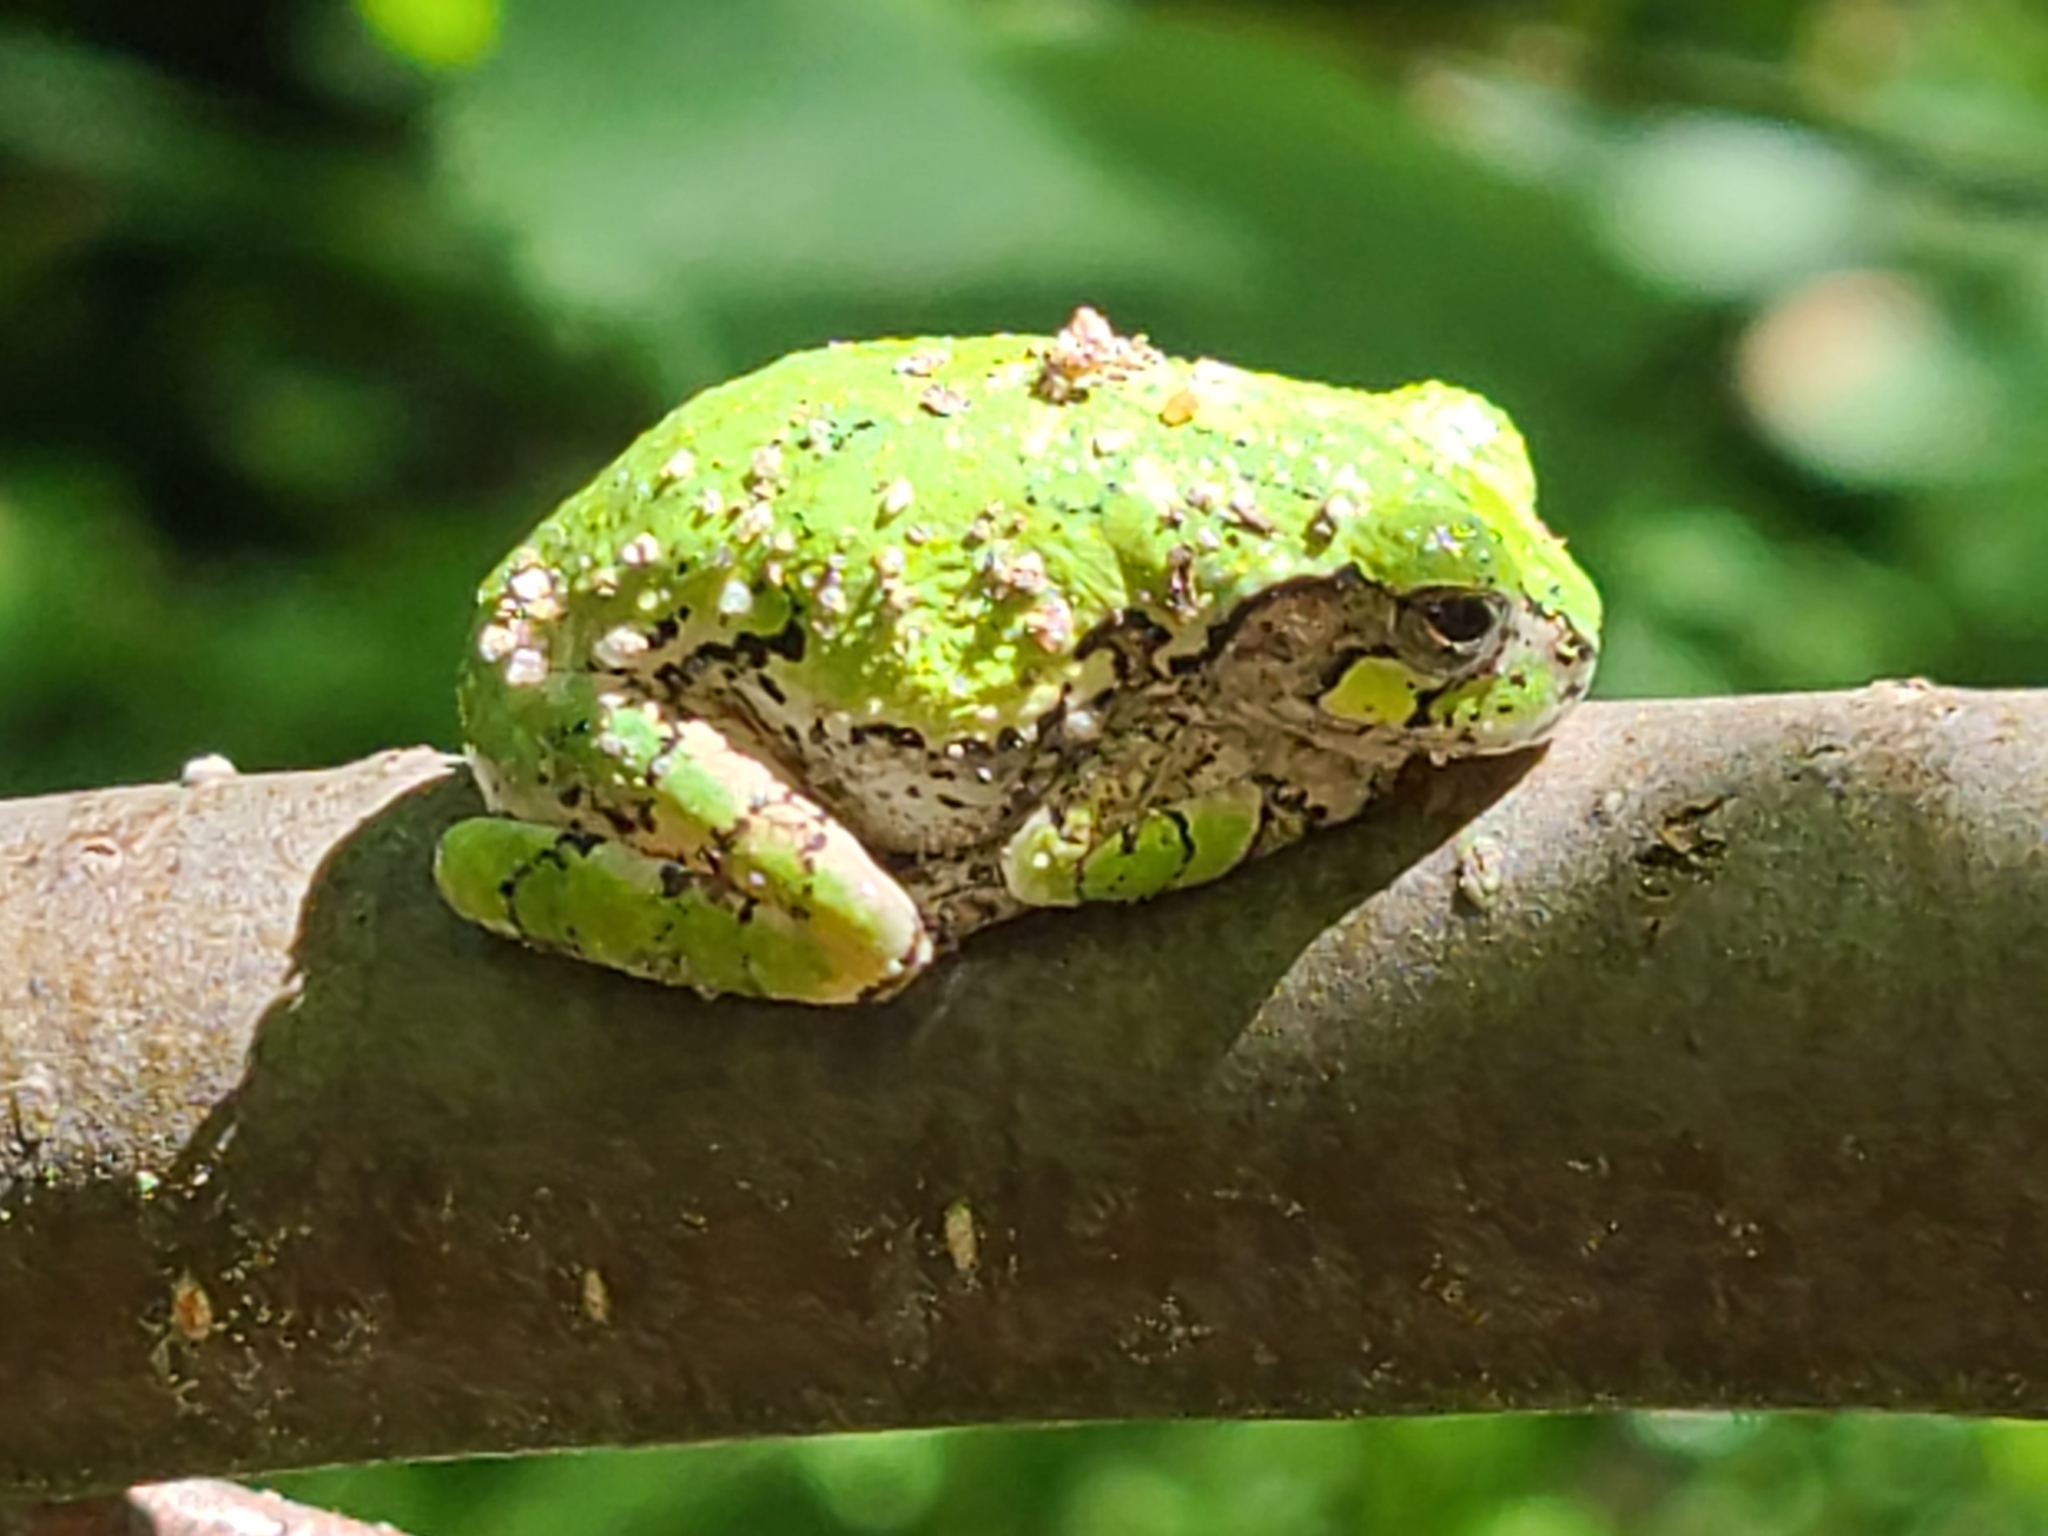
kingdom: Animalia
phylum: Chordata
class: Amphibia
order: Anura
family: Hylidae
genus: Dryophytes
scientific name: Dryophytes versicolor
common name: Gray treefrog
